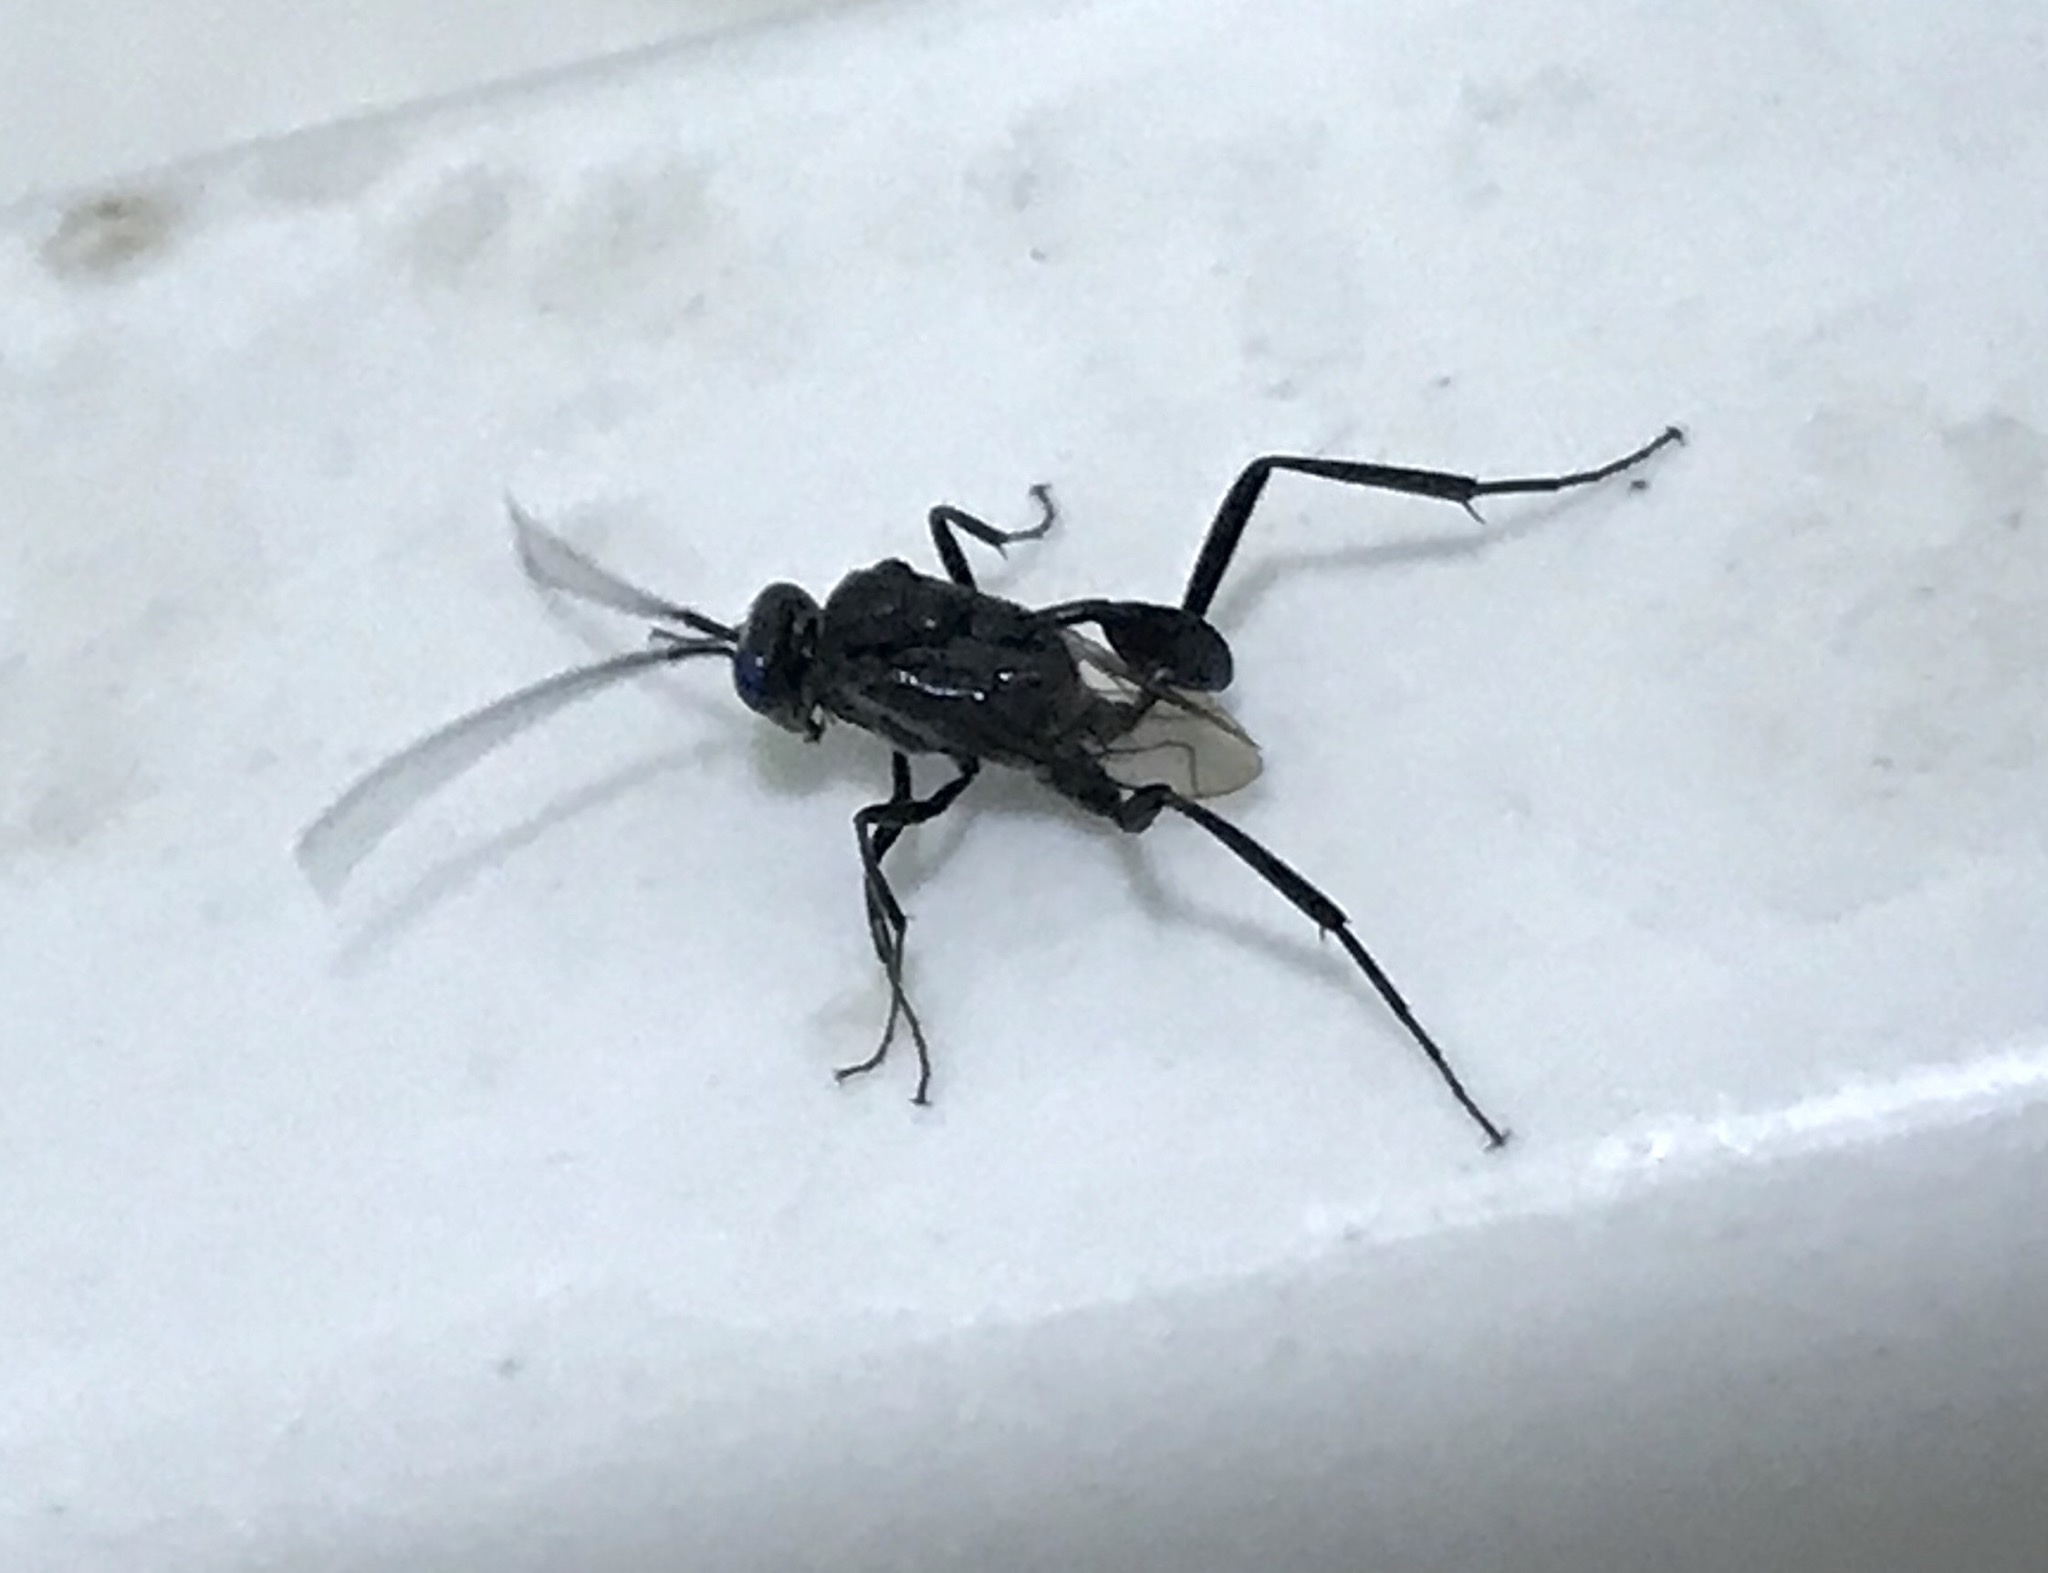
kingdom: Animalia
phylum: Arthropoda
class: Insecta
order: Hymenoptera
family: Evaniidae
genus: Evania
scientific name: Evania appendigaster
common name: Ensign wasp
